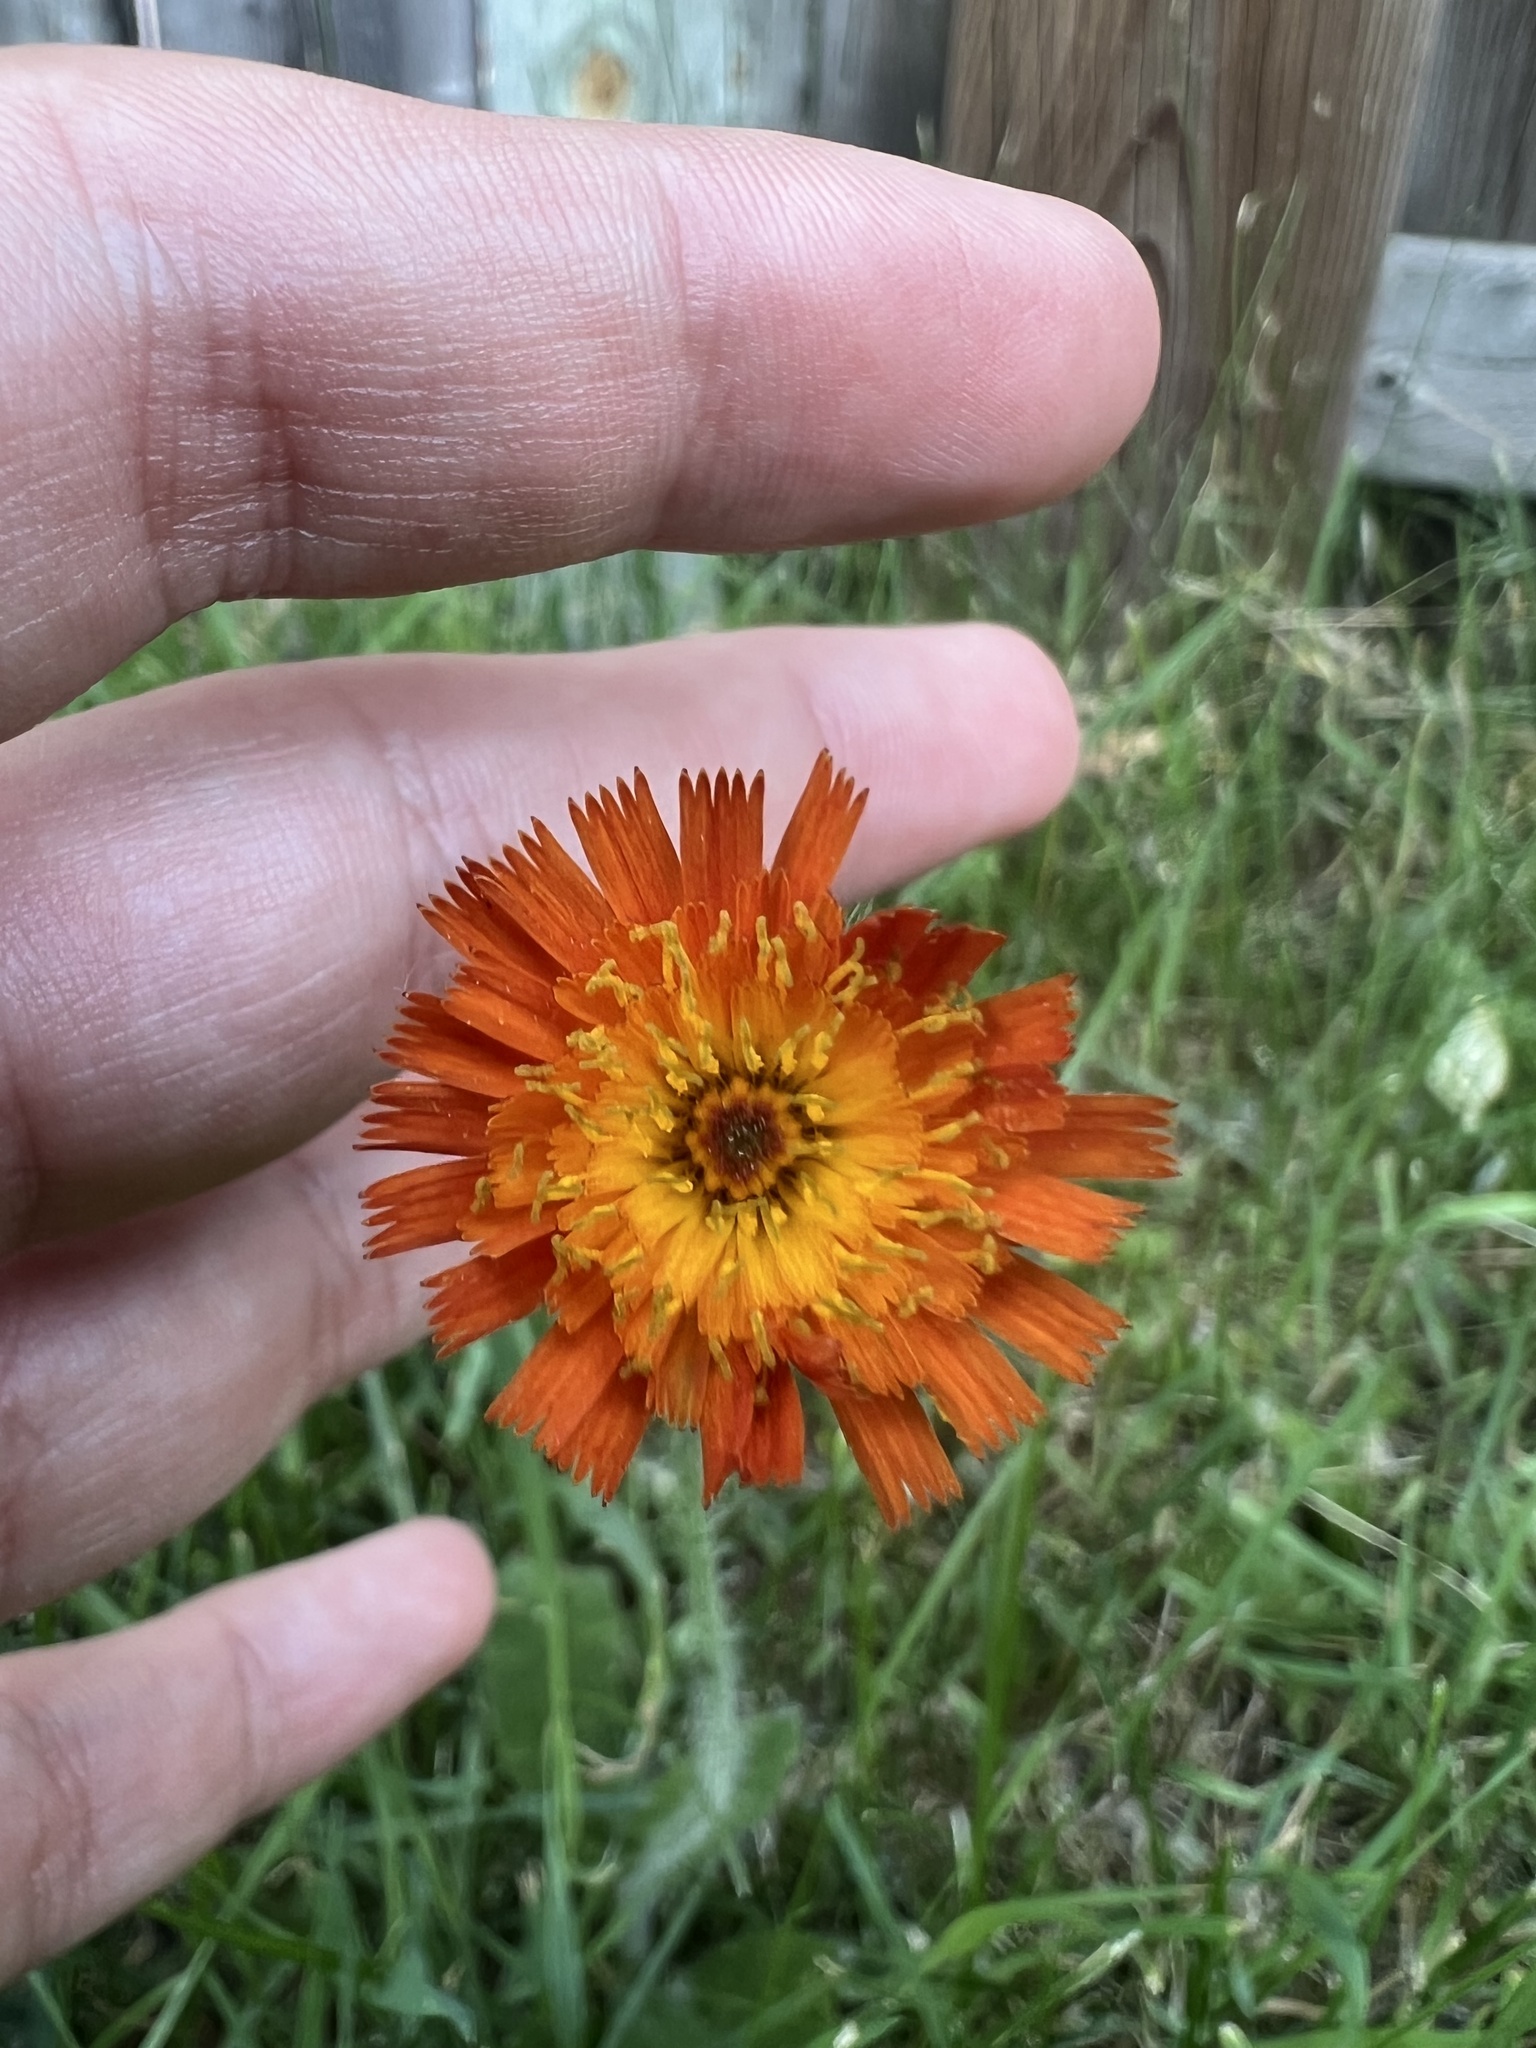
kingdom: Plantae
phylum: Tracheophyta
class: Magnoliopsida
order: Asterales
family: Asteraceae
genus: Pilosella
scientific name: Pilosella aurantiaca
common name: Fox-and-cubs
